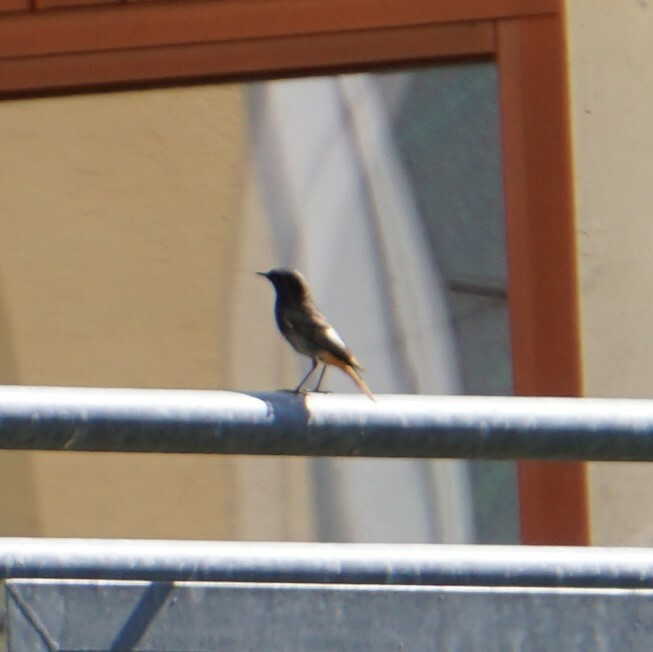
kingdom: Animalia
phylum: Chordata
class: Aves
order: Passeriformes
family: Muscicapidae
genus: Phoenicurus
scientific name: Phoenicurus ochruros
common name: Black redstart
